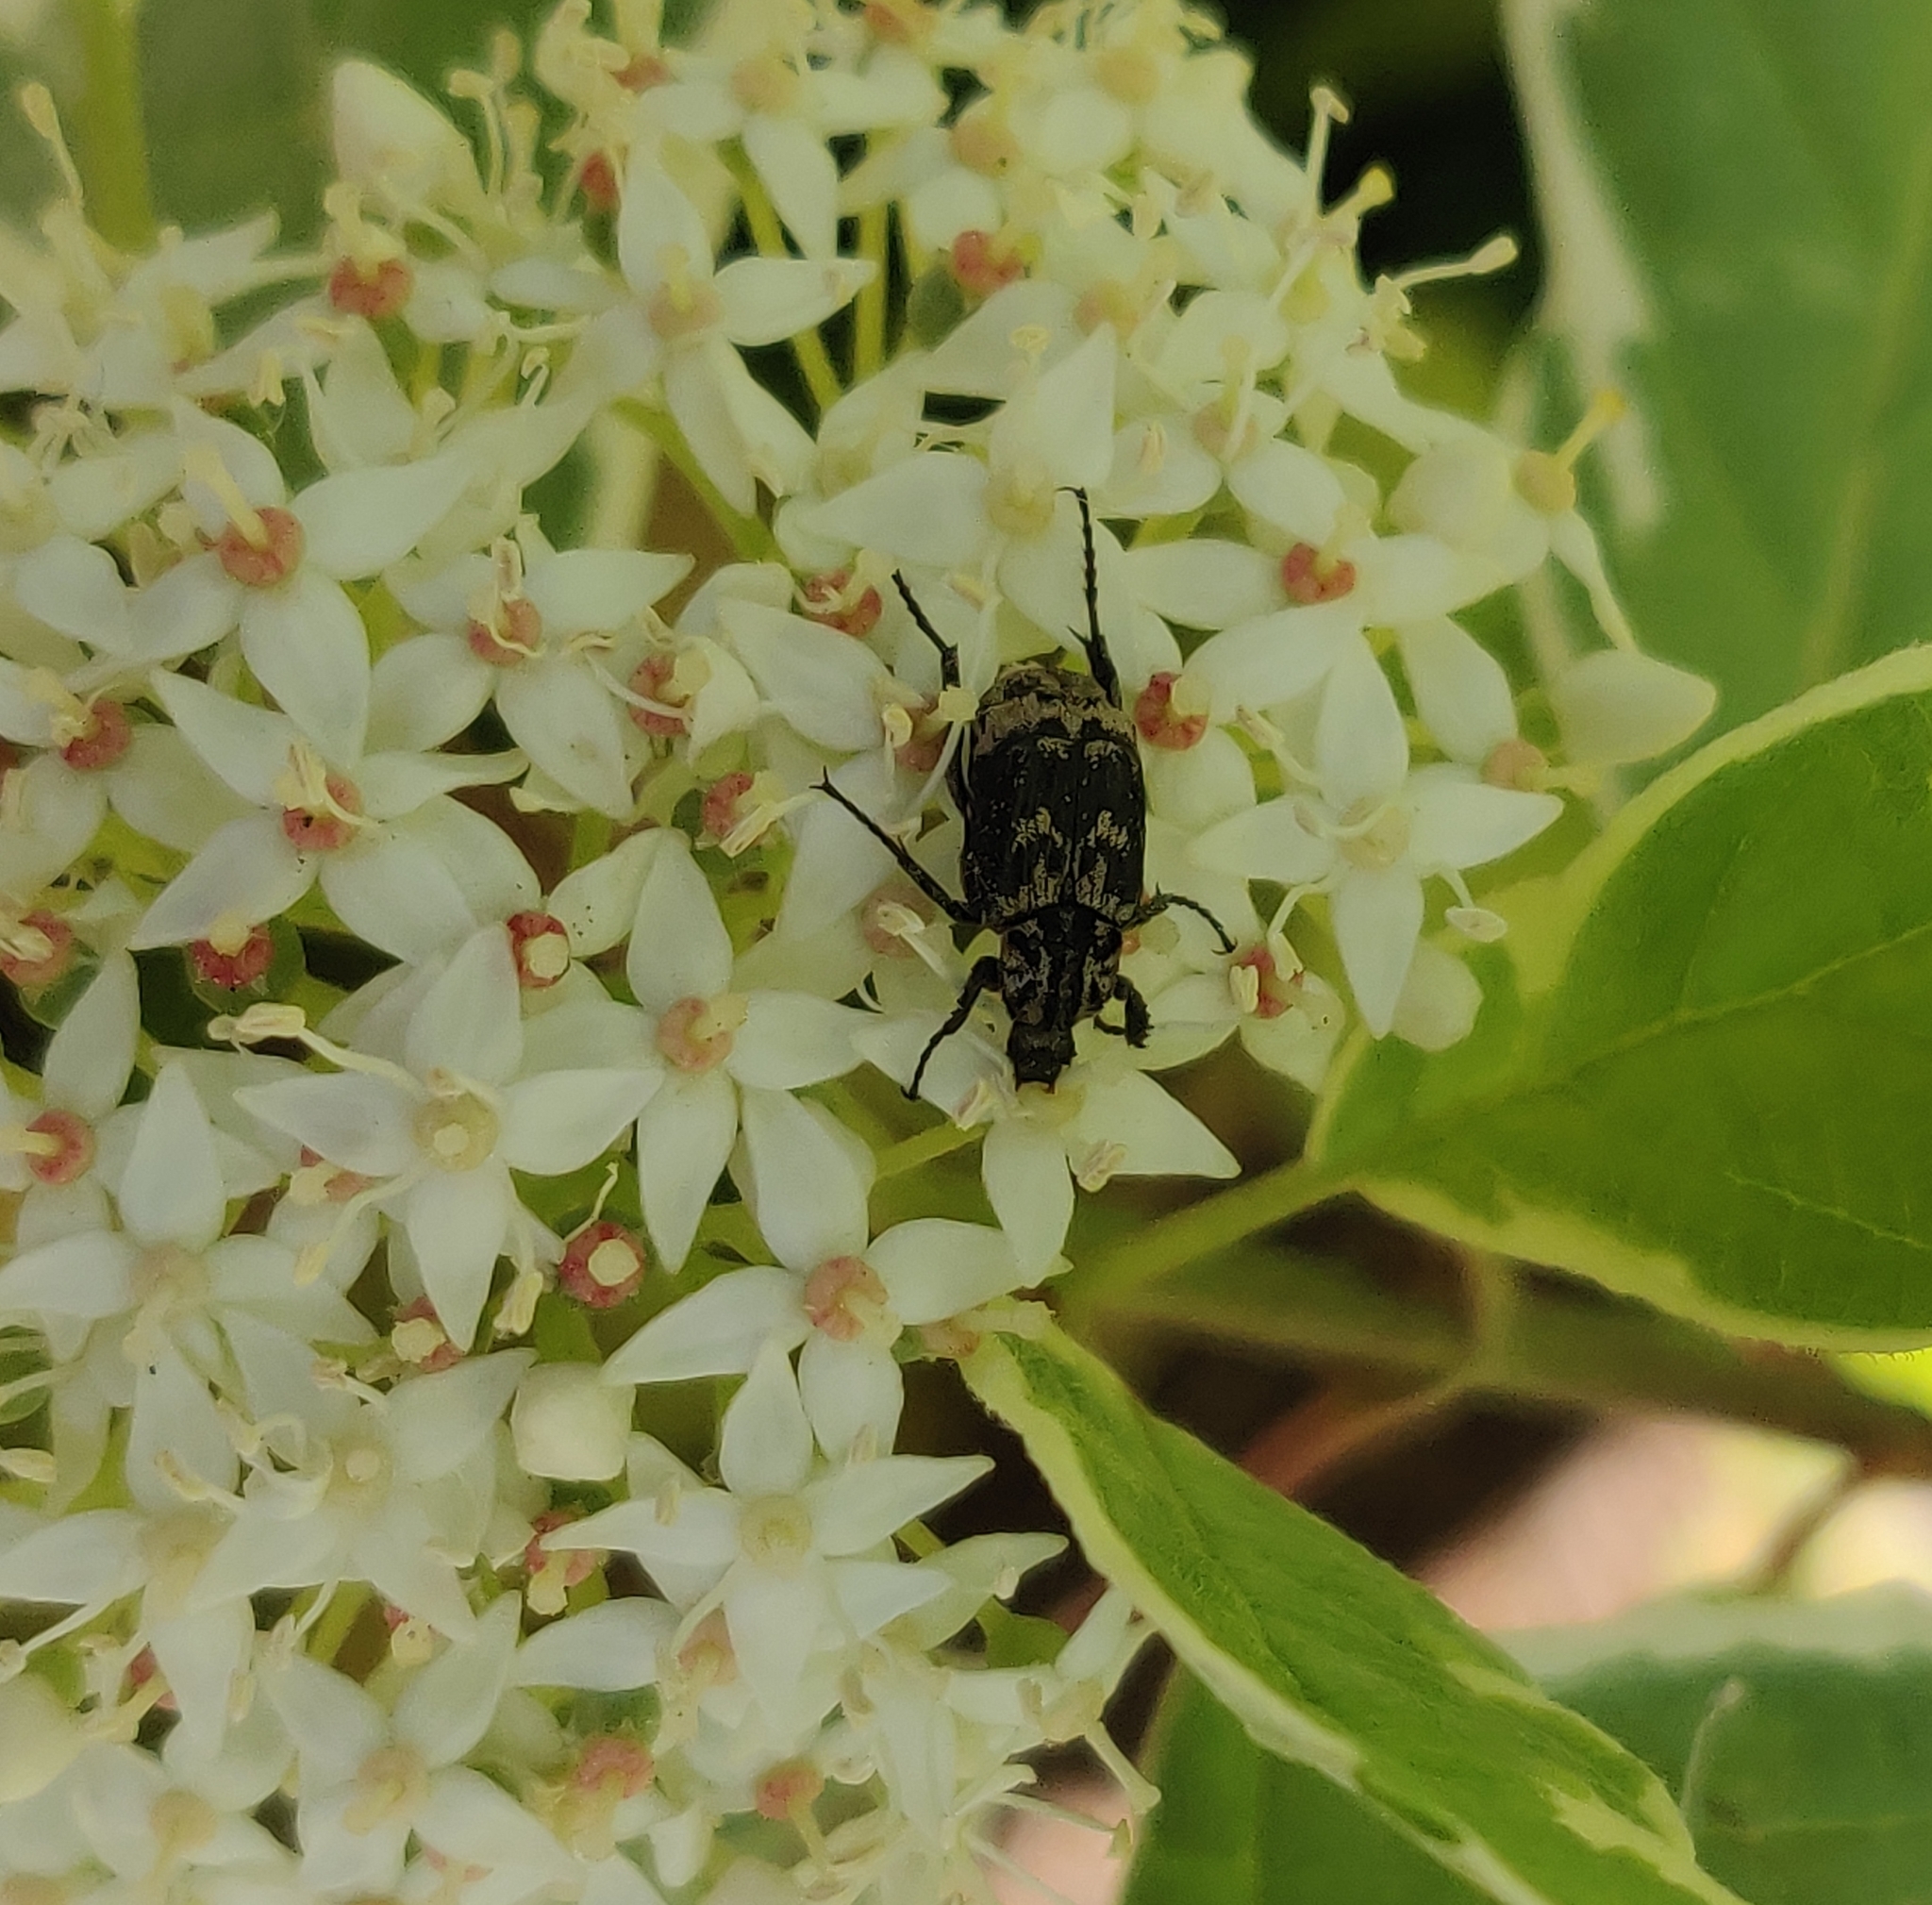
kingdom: Animalia
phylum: Arthropoda
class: Insecta
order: Coleoptera
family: Scarabaeidae
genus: Valgus
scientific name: Valgus hemipterus
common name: Bug flower chafer
